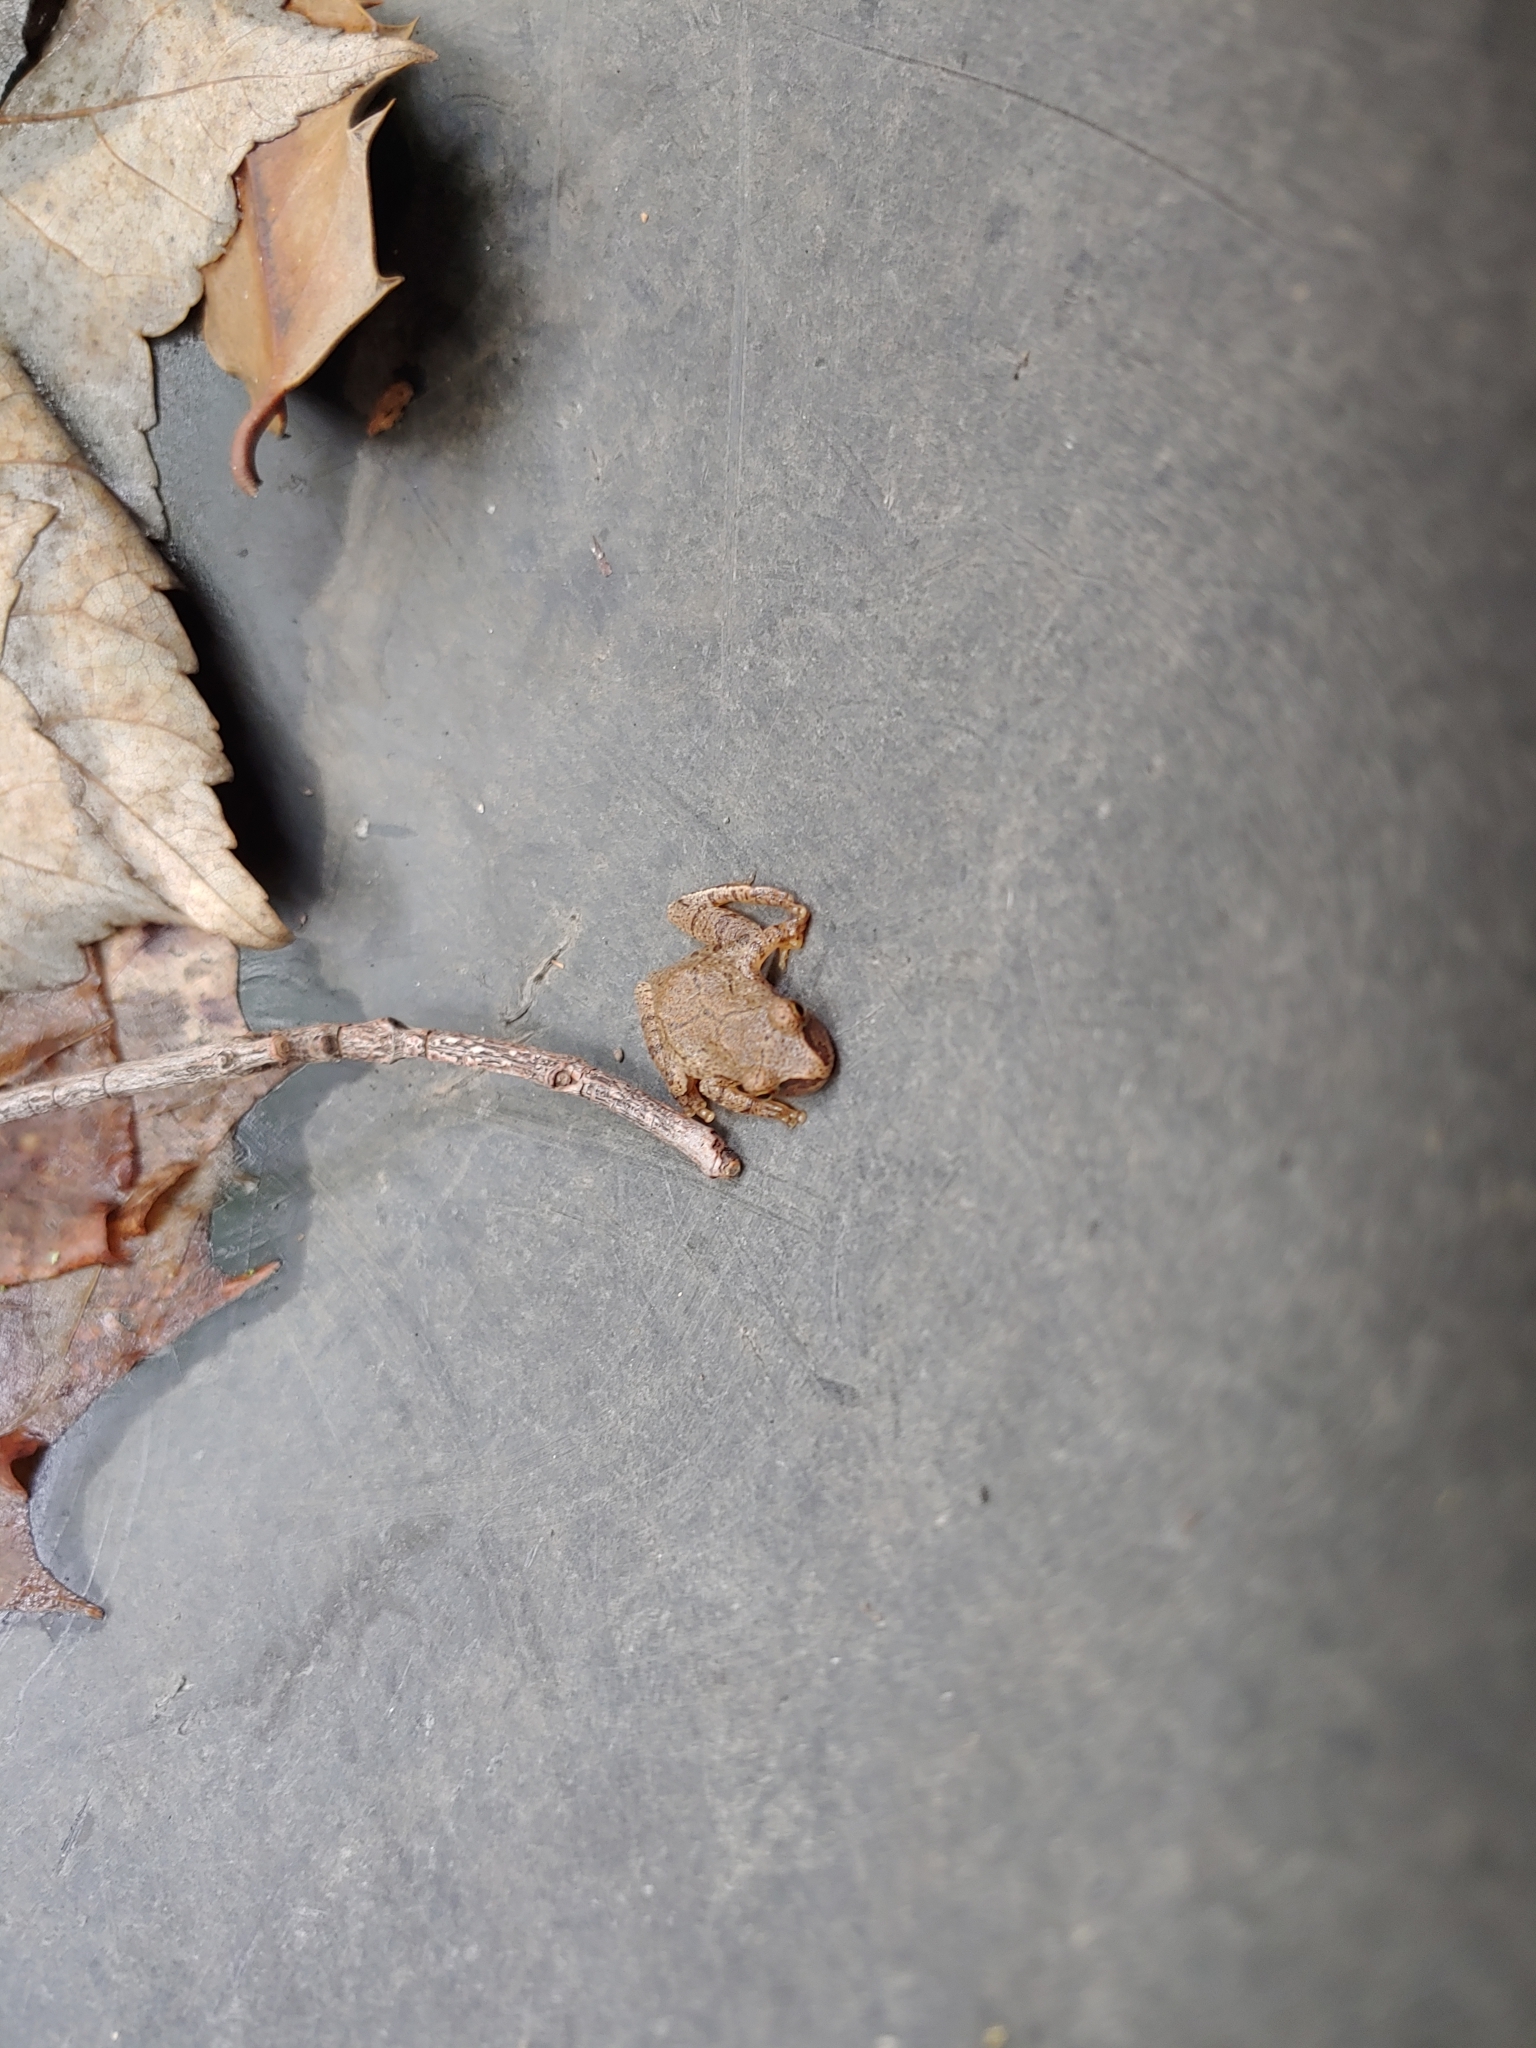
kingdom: Animalia
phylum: Chordata
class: Amphibia
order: Anura
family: Hylidae
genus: Pseudacris
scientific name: Pseudacris crucifer
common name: Spring peeper
